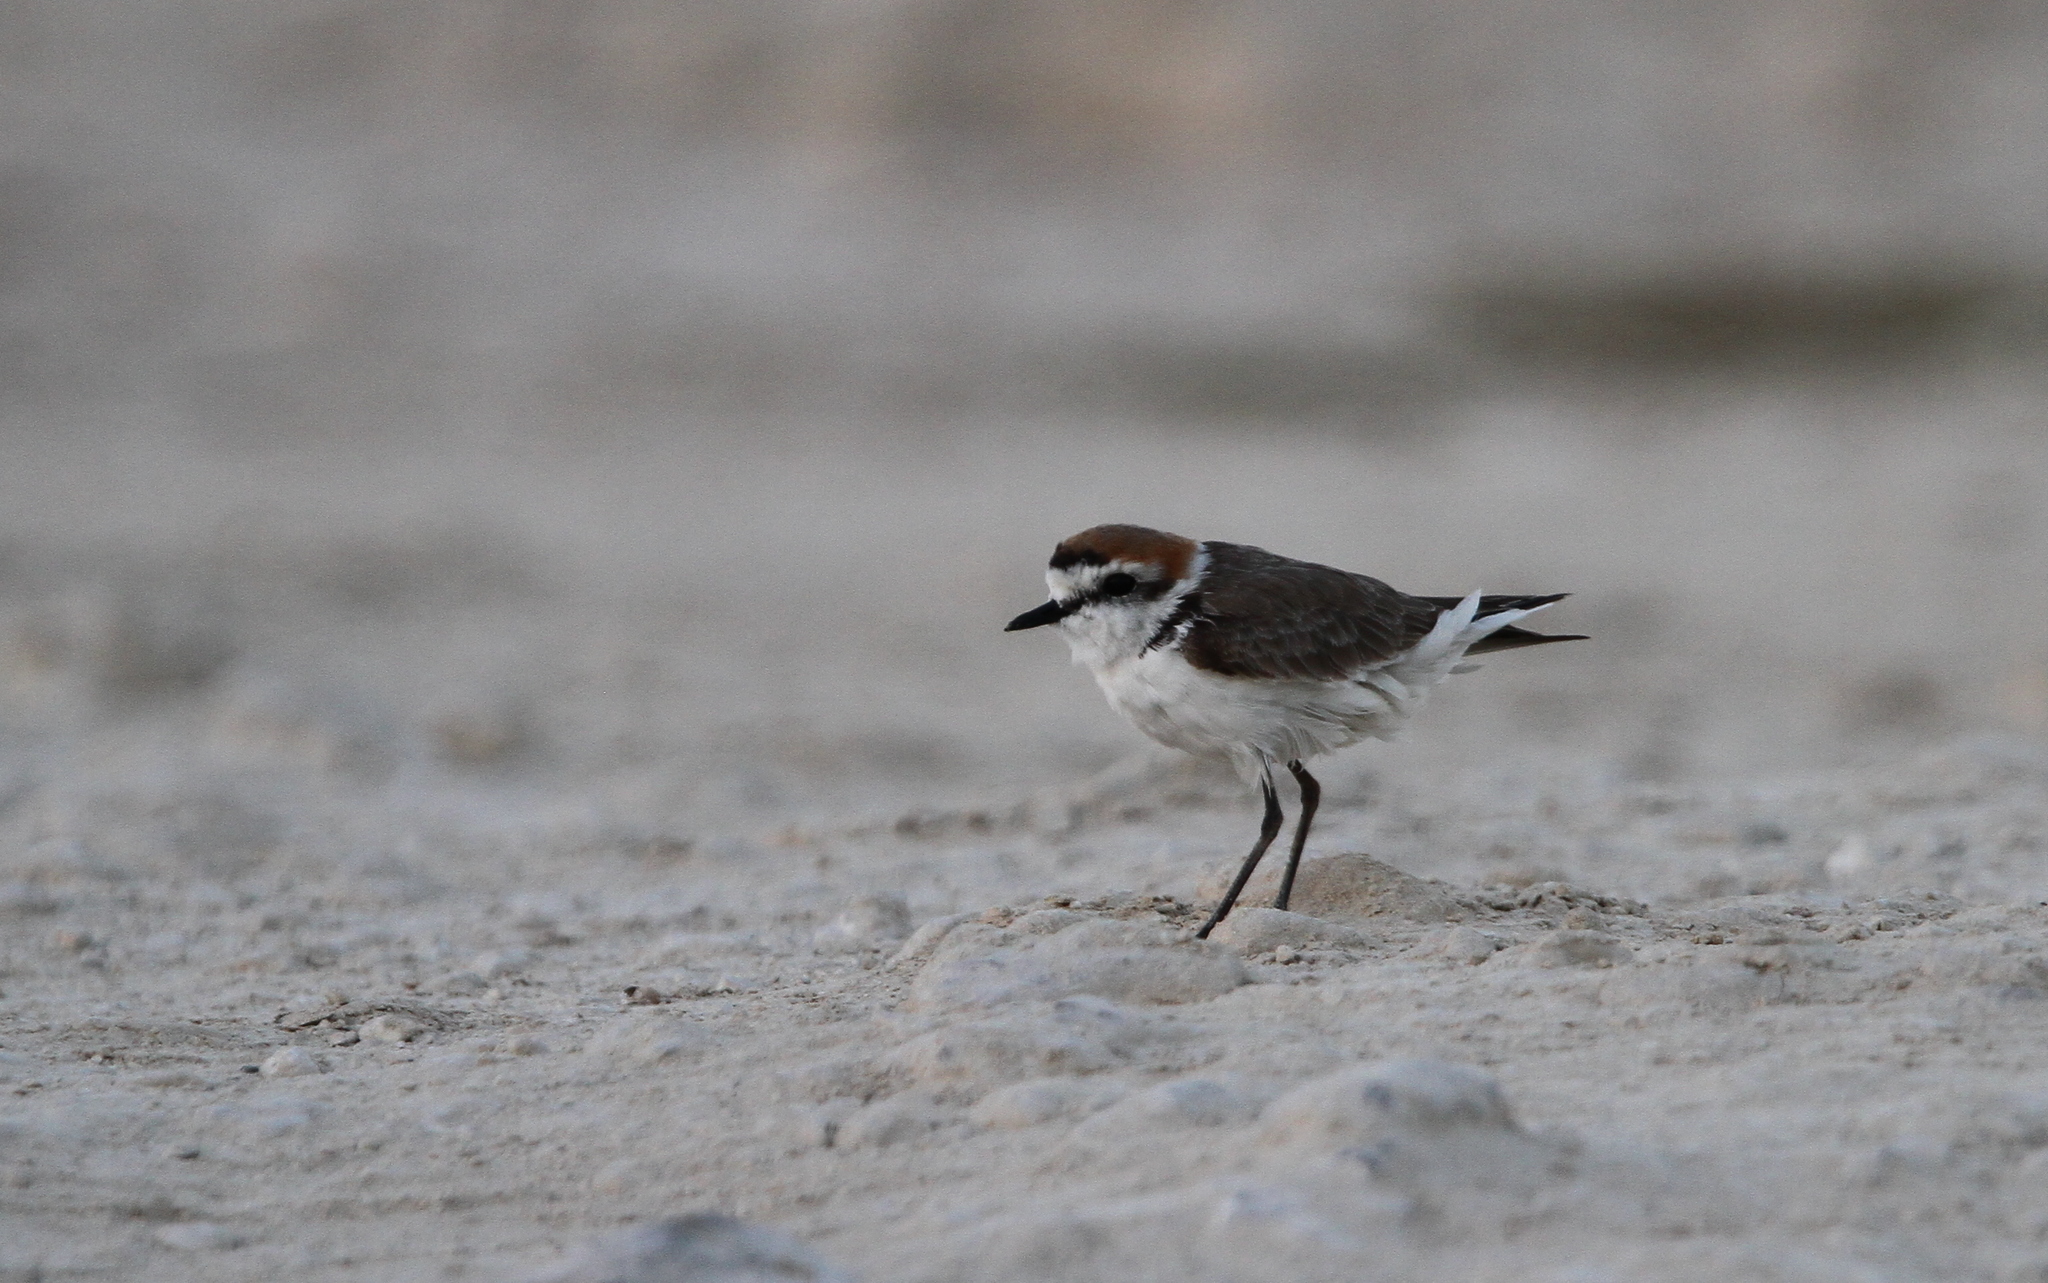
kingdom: Animalia
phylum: Chordata
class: Aves
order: Charadriiformes
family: Charadriidae
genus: Charadrius
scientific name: Charadrius alexandrinus
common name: Kentish plover
